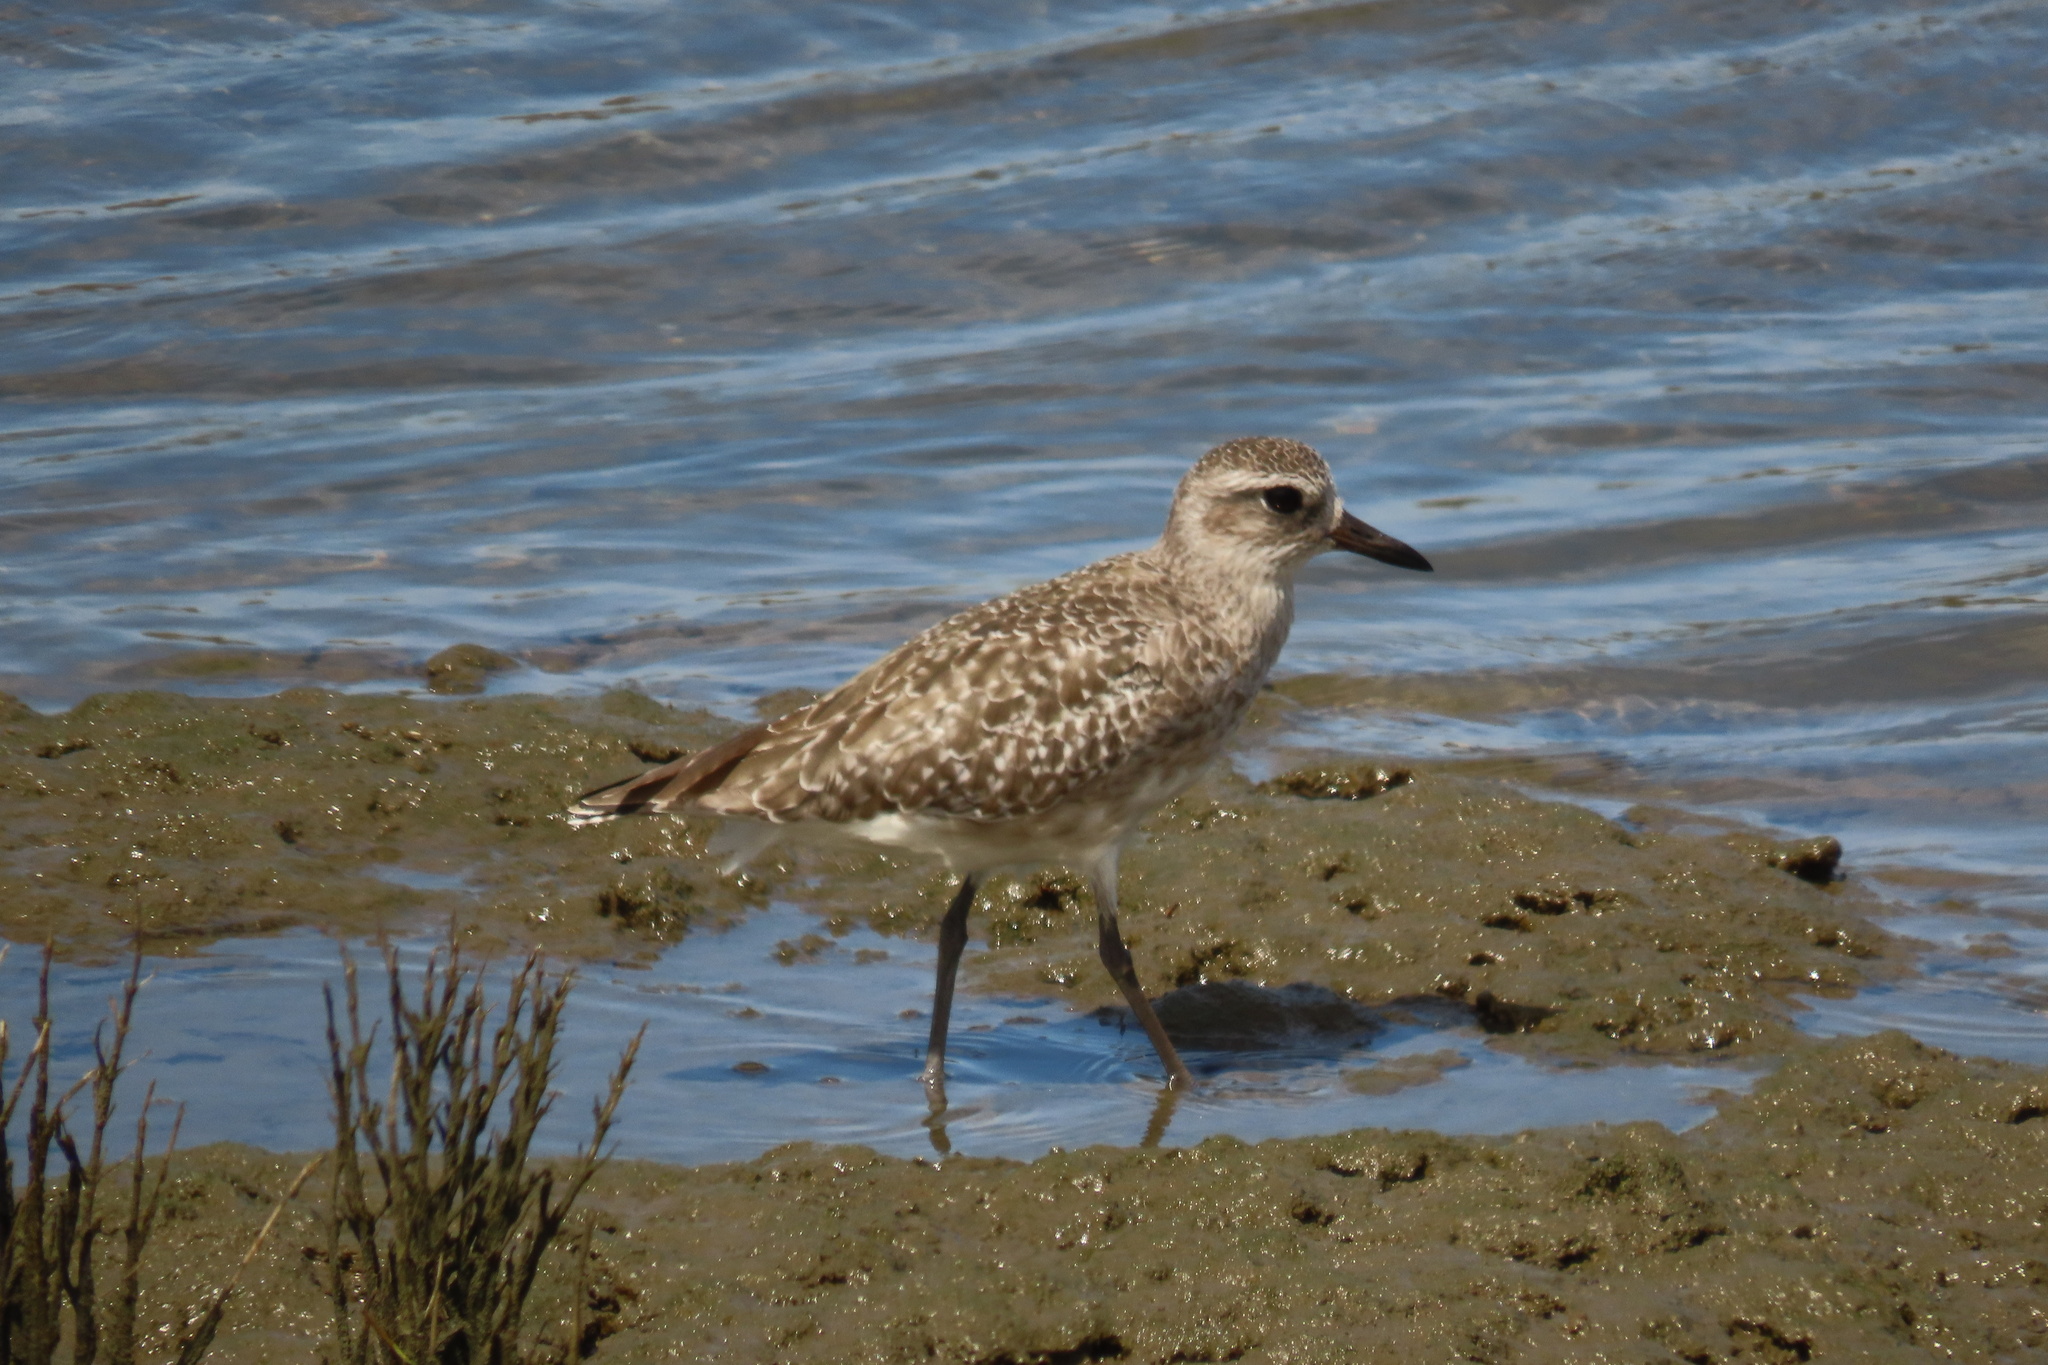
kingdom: Animalia
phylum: Chordata
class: Aves
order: Charadriiformes
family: Charadriidae
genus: Pluvialis
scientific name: Pluvialis squatarola
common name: Grey plover
